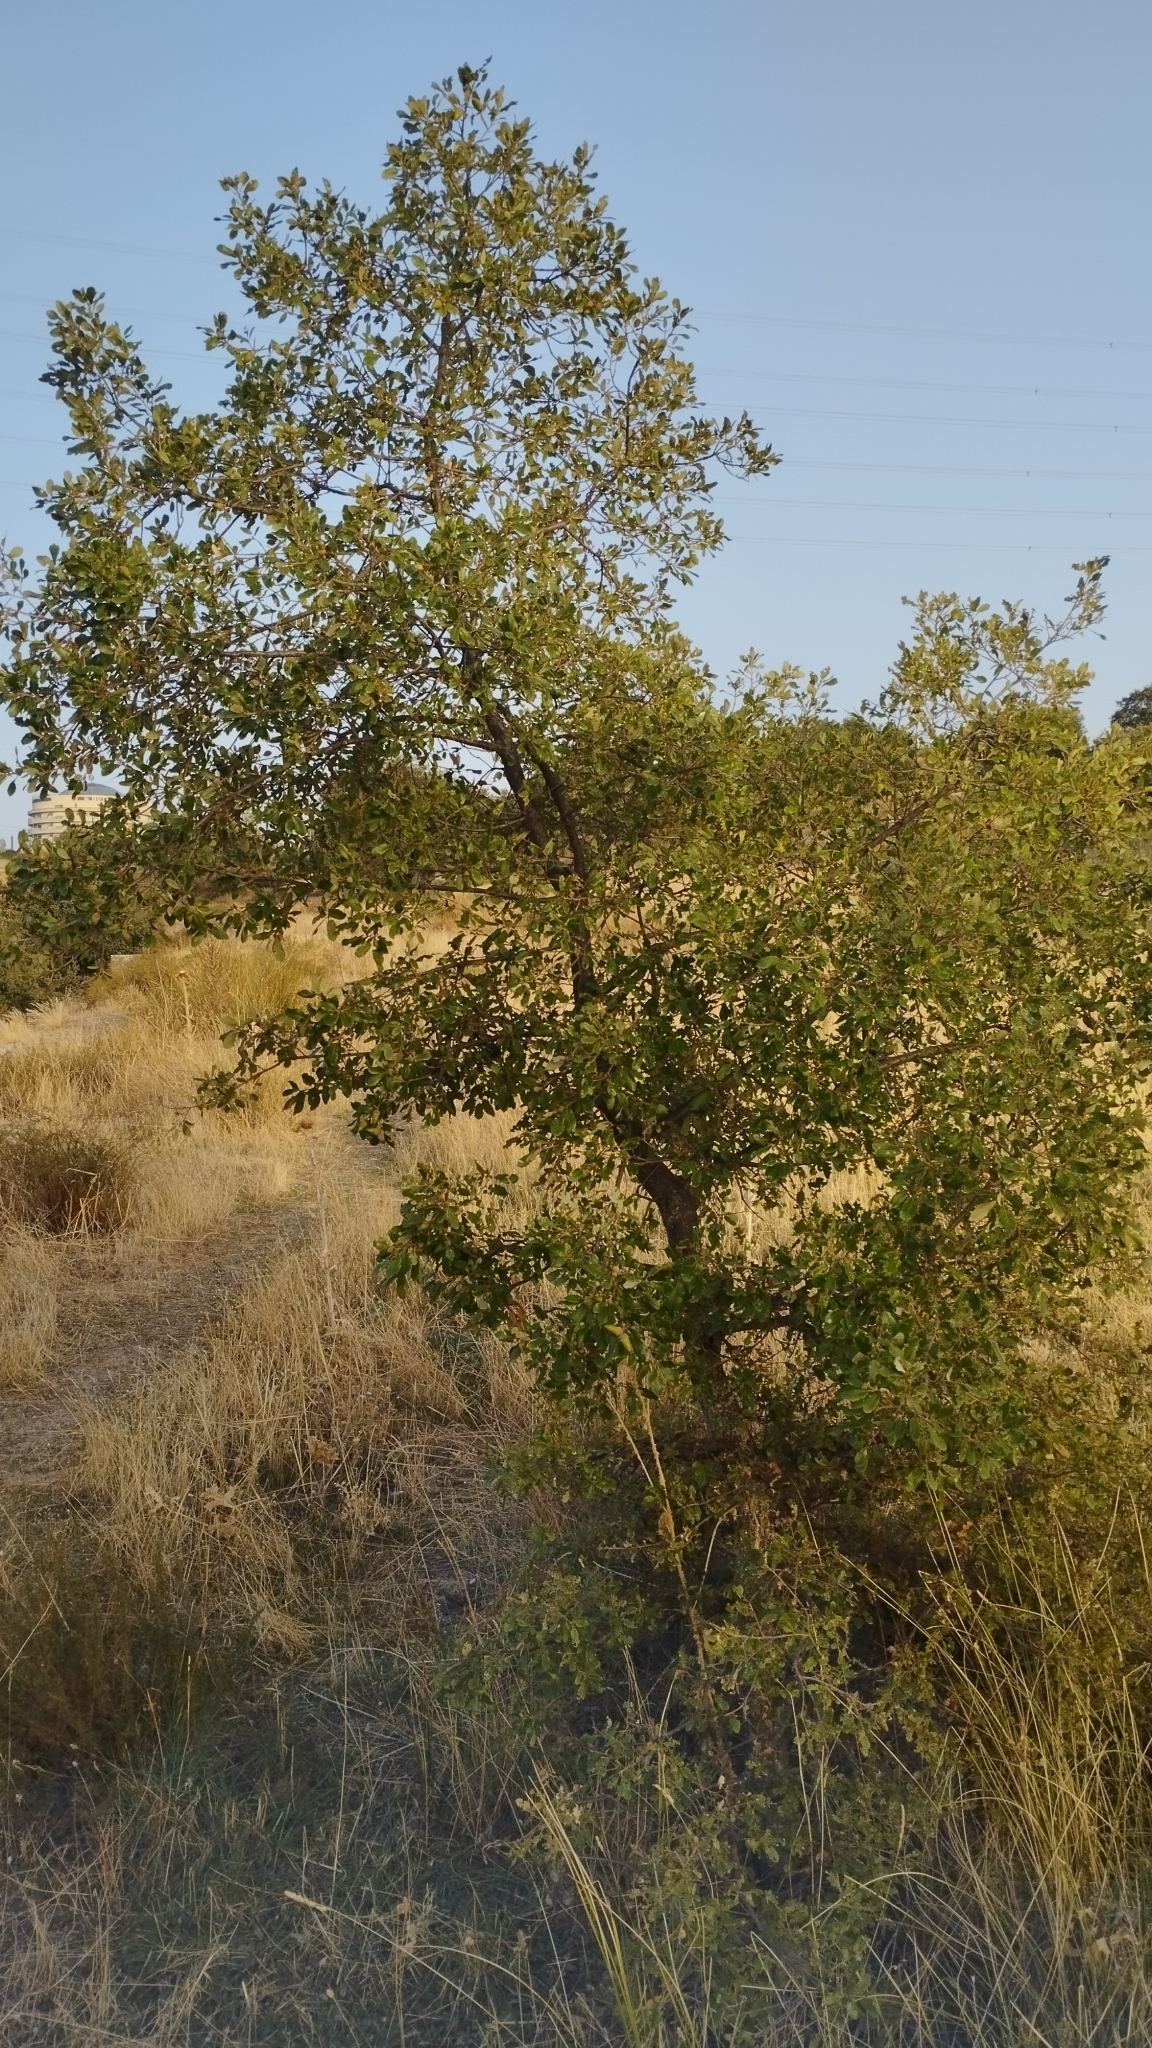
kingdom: Plantae
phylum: Tracheophyta
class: Magnoliopsida
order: Fagales
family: Fagaceae
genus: Quercus
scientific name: Quercus faginea
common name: Gall oak tree
